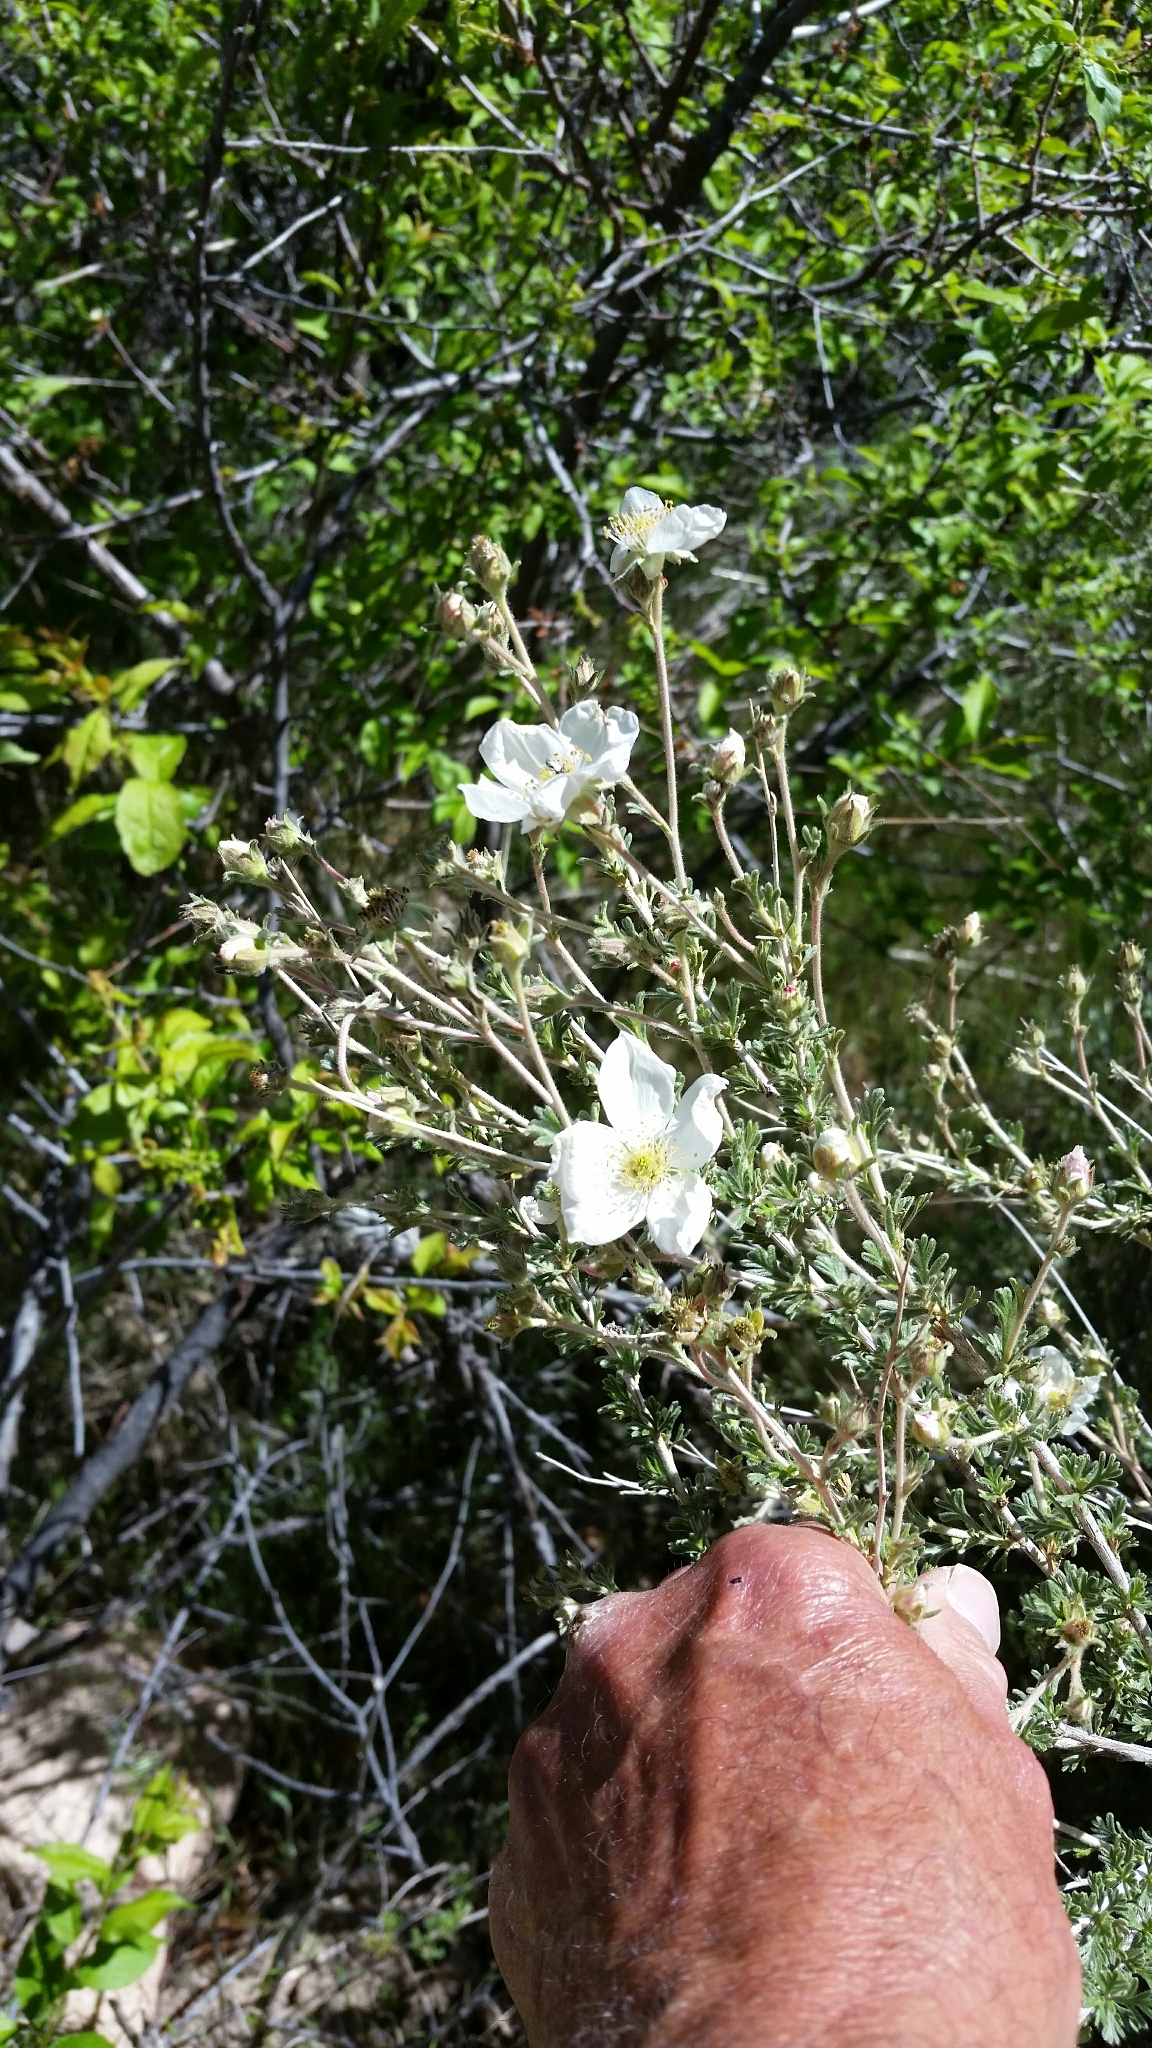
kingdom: Plantae
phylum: Tracheophyta
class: Magnoliopsida
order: Rosales
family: Rosaceae
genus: Fallugia
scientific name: Fallugia paradoxa
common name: Apache-plume
